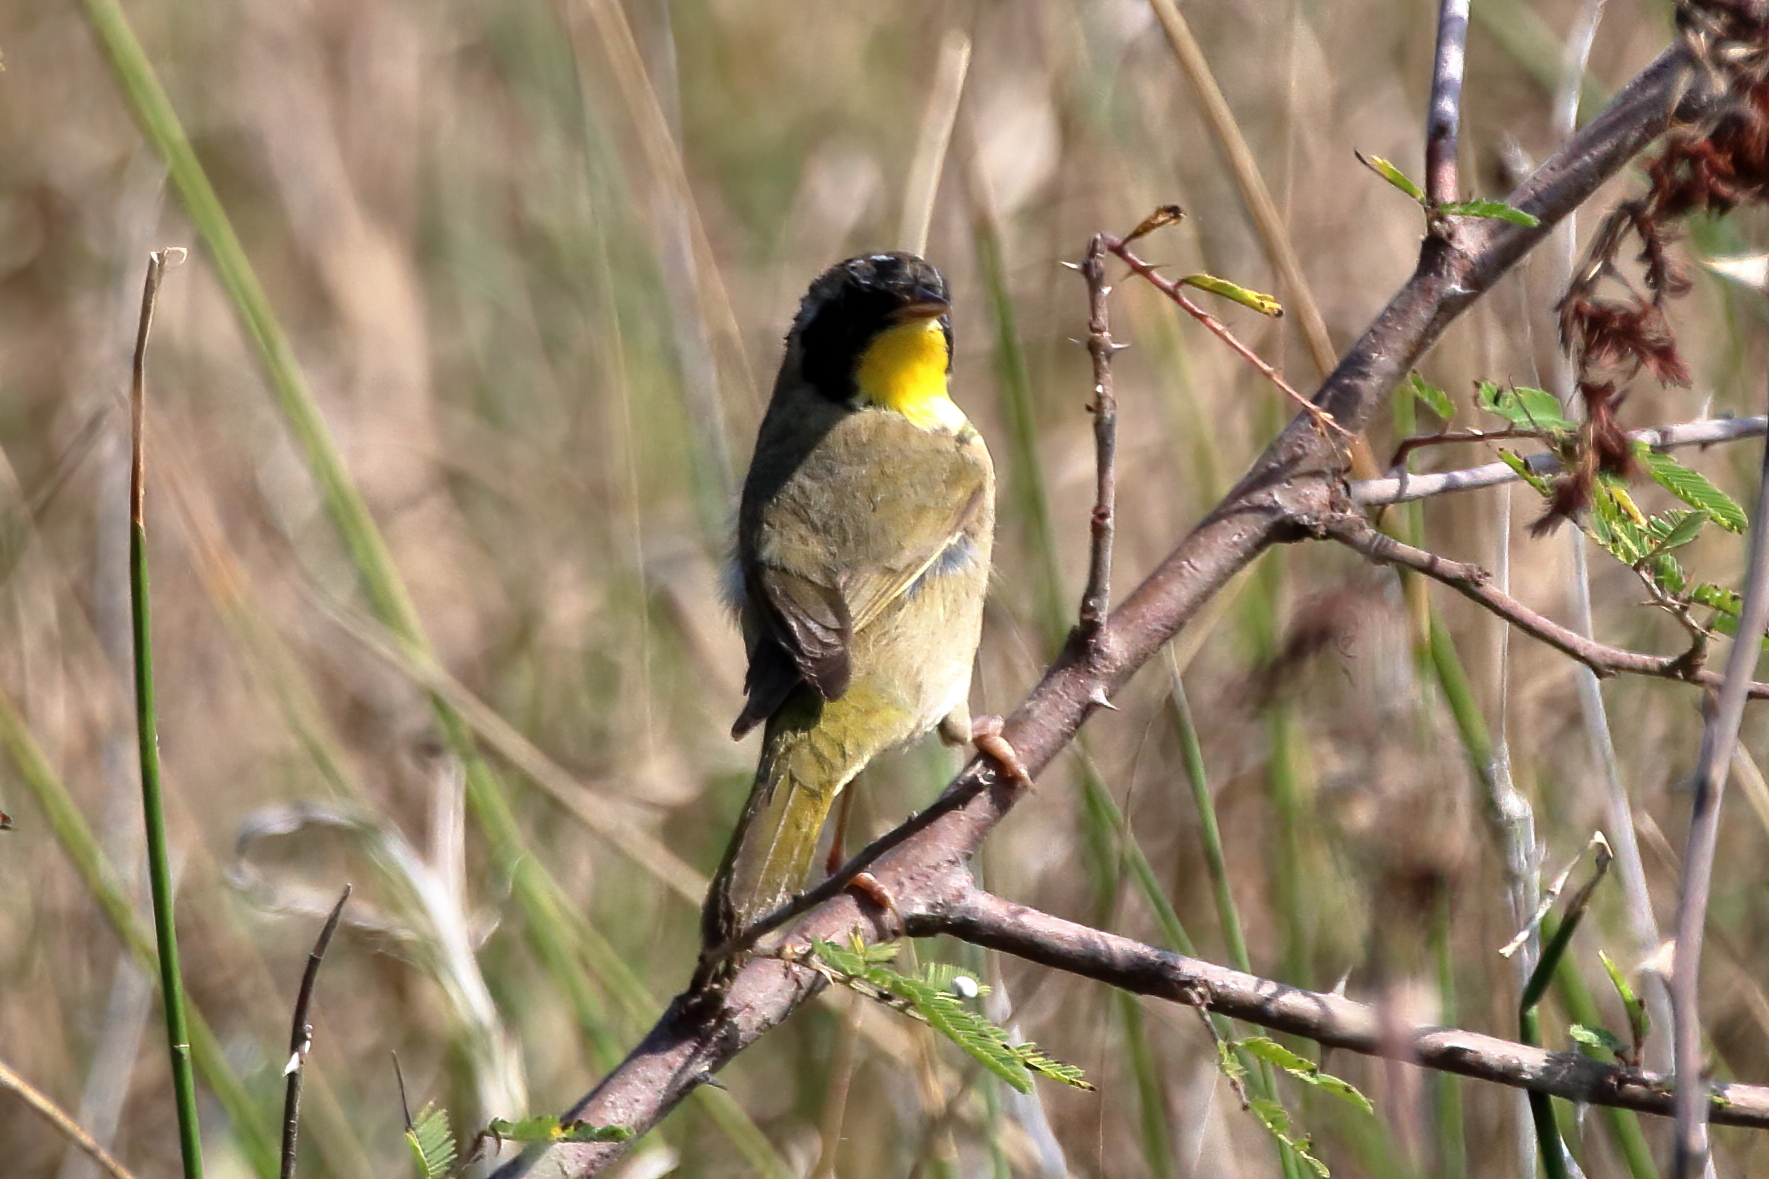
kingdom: Animalia
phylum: Chordata
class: Aves
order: Passeriformes
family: Parulidae
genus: Geothlypis
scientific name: Geothlypis trichas
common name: Common yellowthroat
